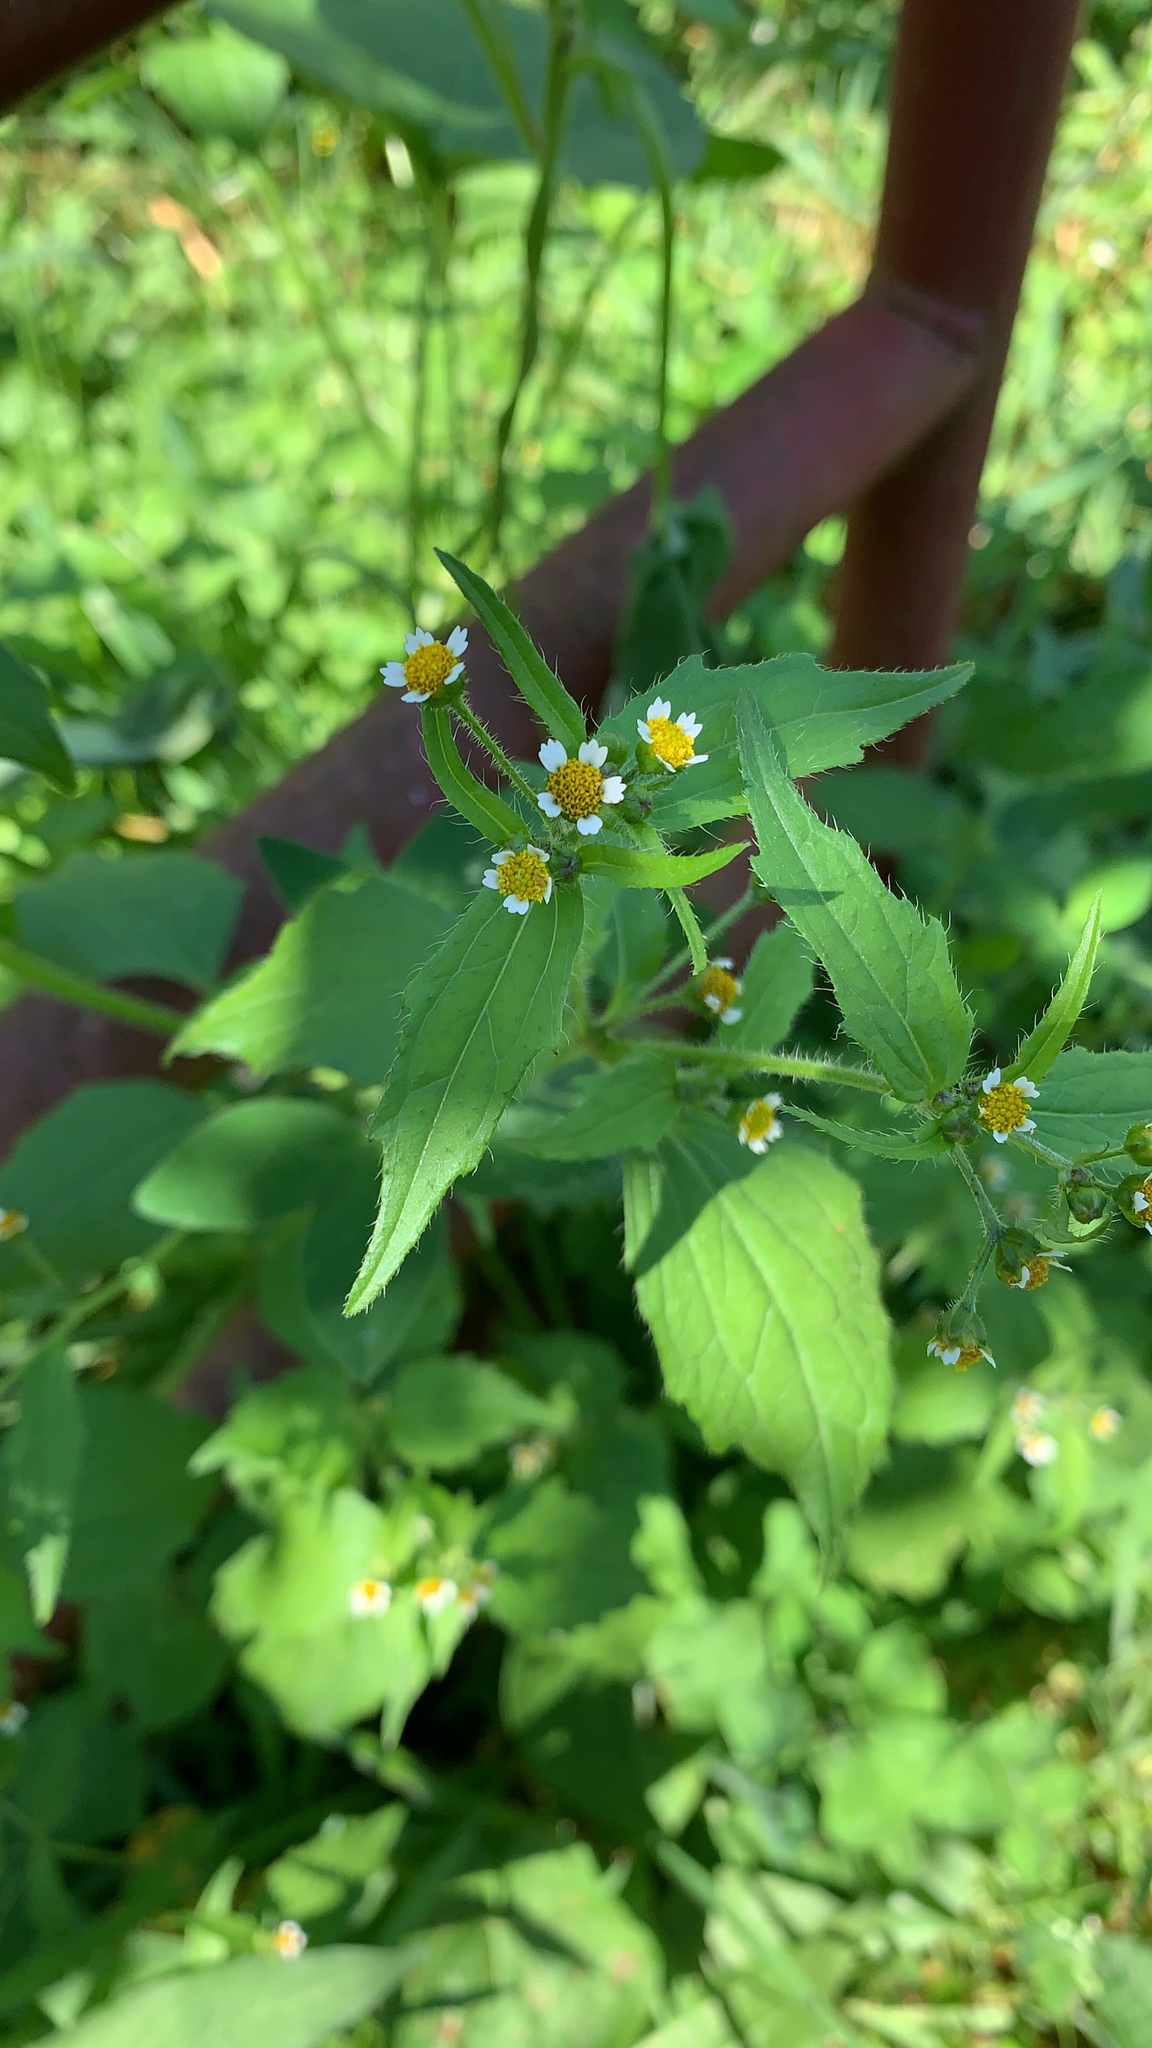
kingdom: Plantae
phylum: Tracheophyta
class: Magnoliopsida
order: Asterales
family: Asteraceae
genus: Galinsoga
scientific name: Galinsoga quadriradiata
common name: Shaggy soldier
